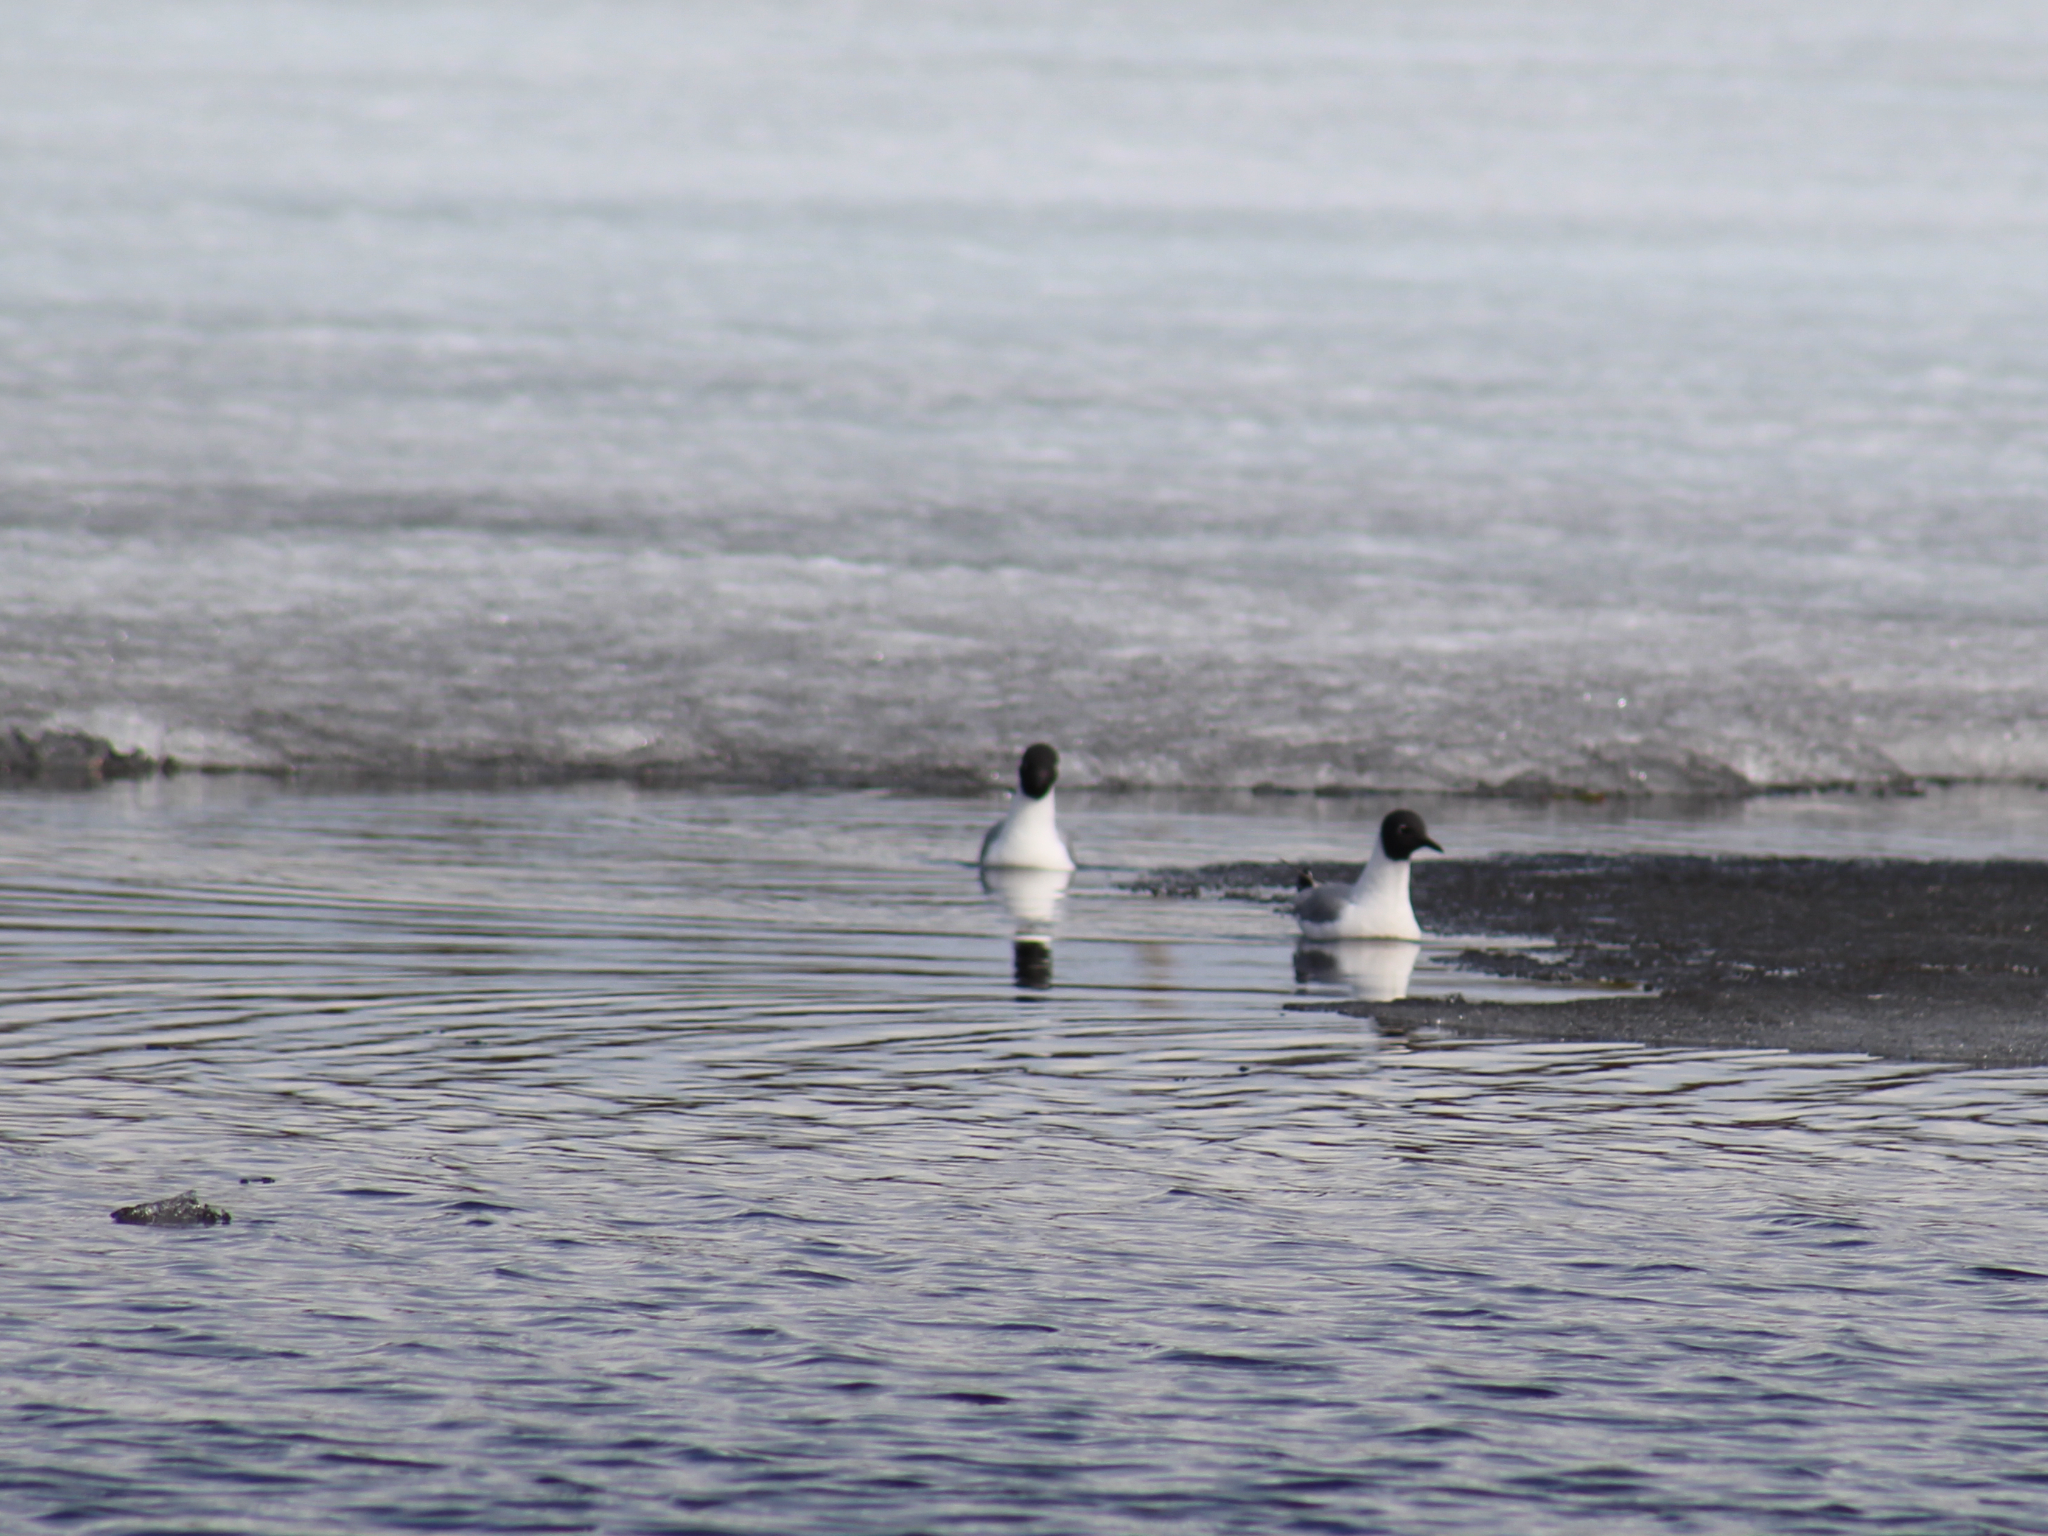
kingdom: Animalia
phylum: Chordata
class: Aves
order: Charadriiformes
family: Laridae
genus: Chroicocephalus
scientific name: Chroicocephalus philadelphia
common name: Bonaparte's gull
